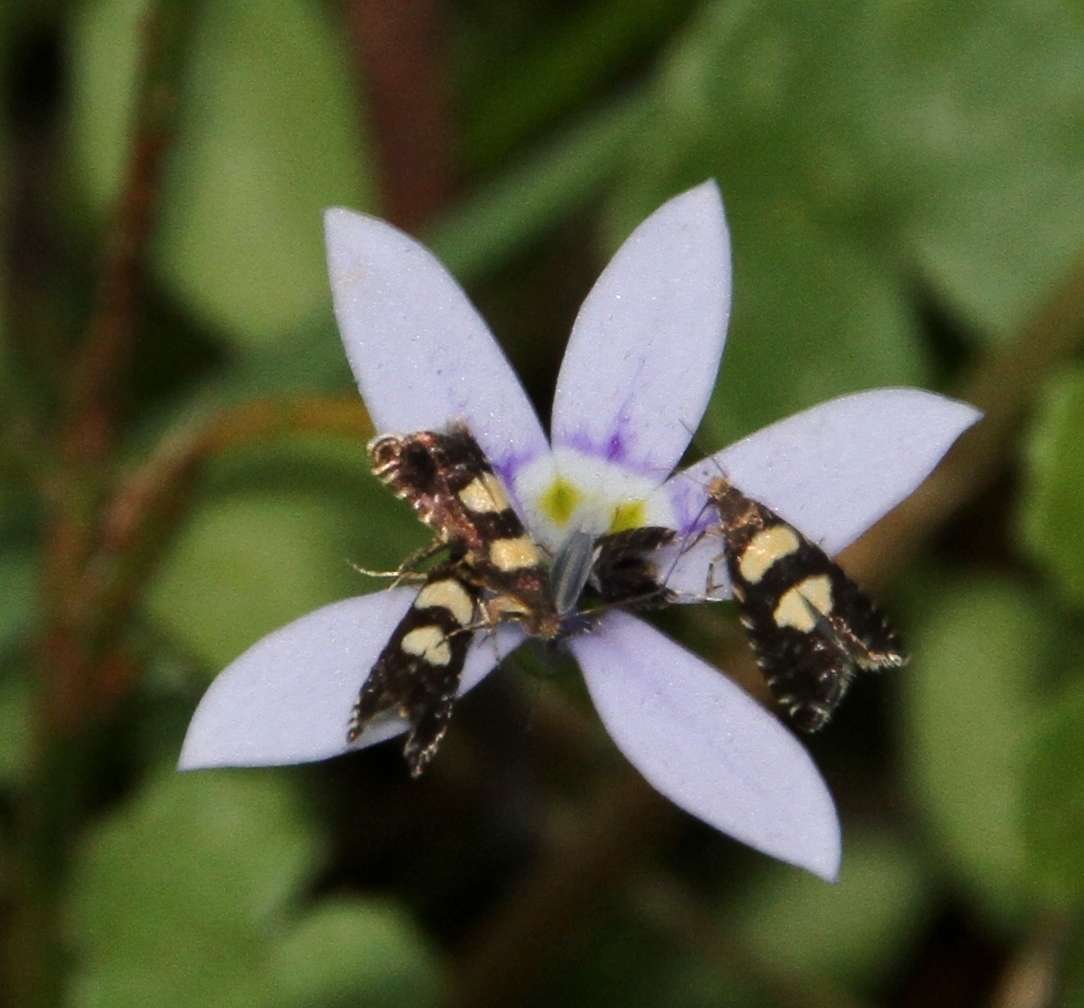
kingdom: Plantae
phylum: Tracheophyta
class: Magnoliopsida
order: Asterales
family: Campanulaceae
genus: Isotoma
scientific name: Isotoma fluviatilis
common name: Isotoma
